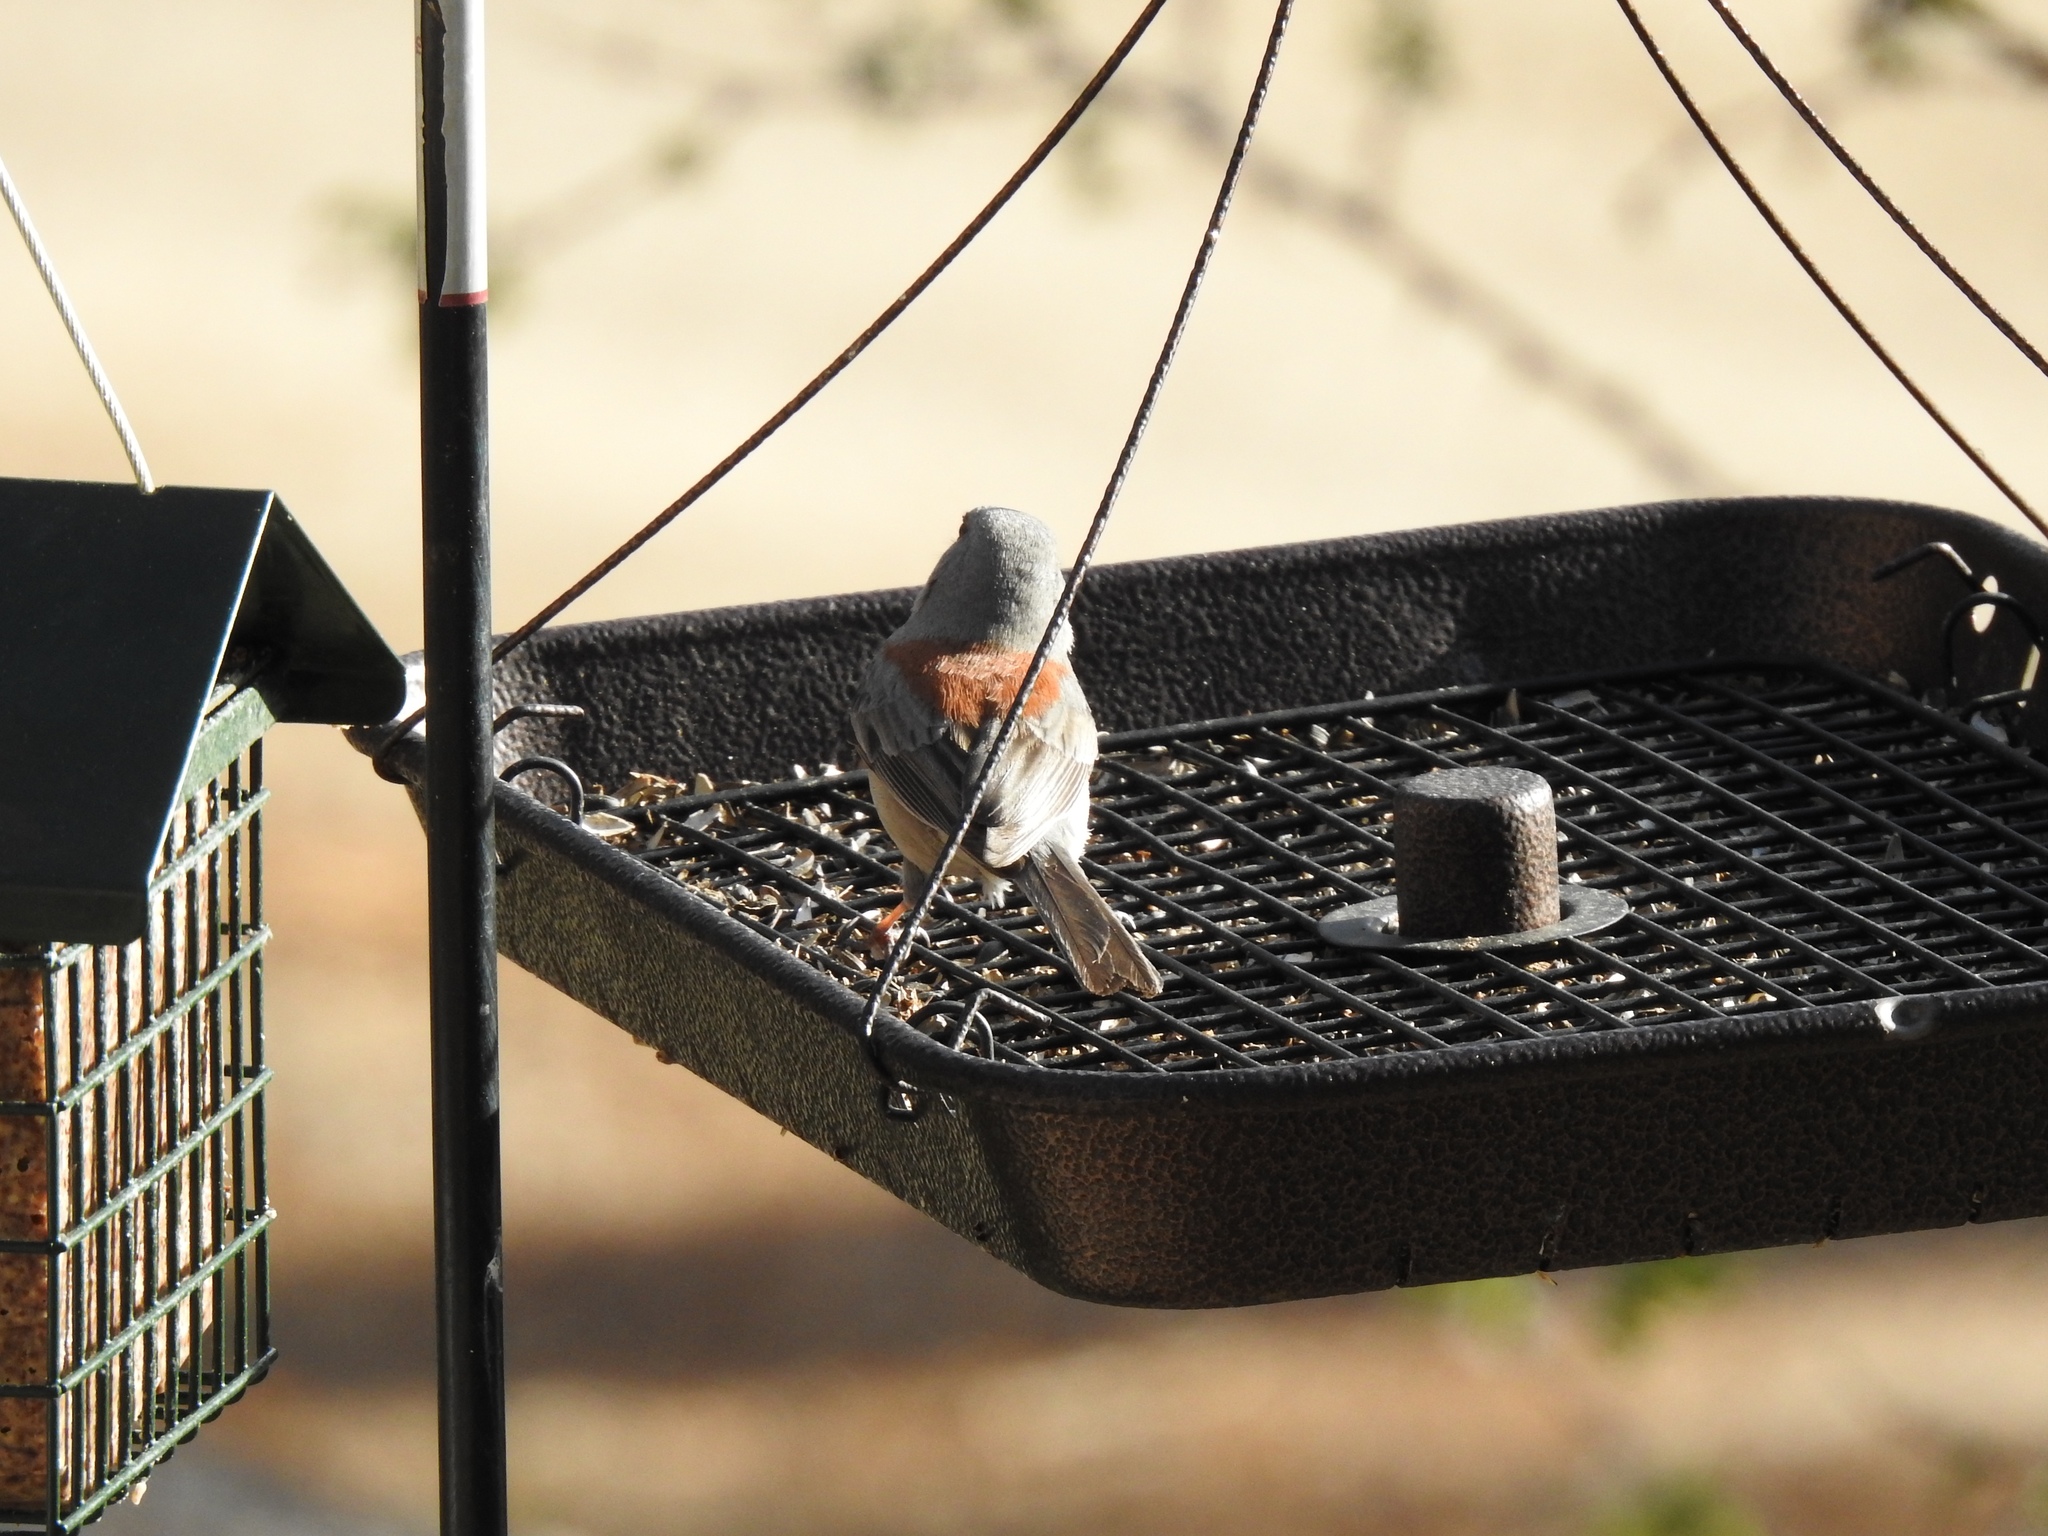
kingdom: Animalia
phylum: Chordata
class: Aves
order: Passeriformes
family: Passerellidae
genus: Junco
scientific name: Junco hyemalis
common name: Dark-eyed junco
